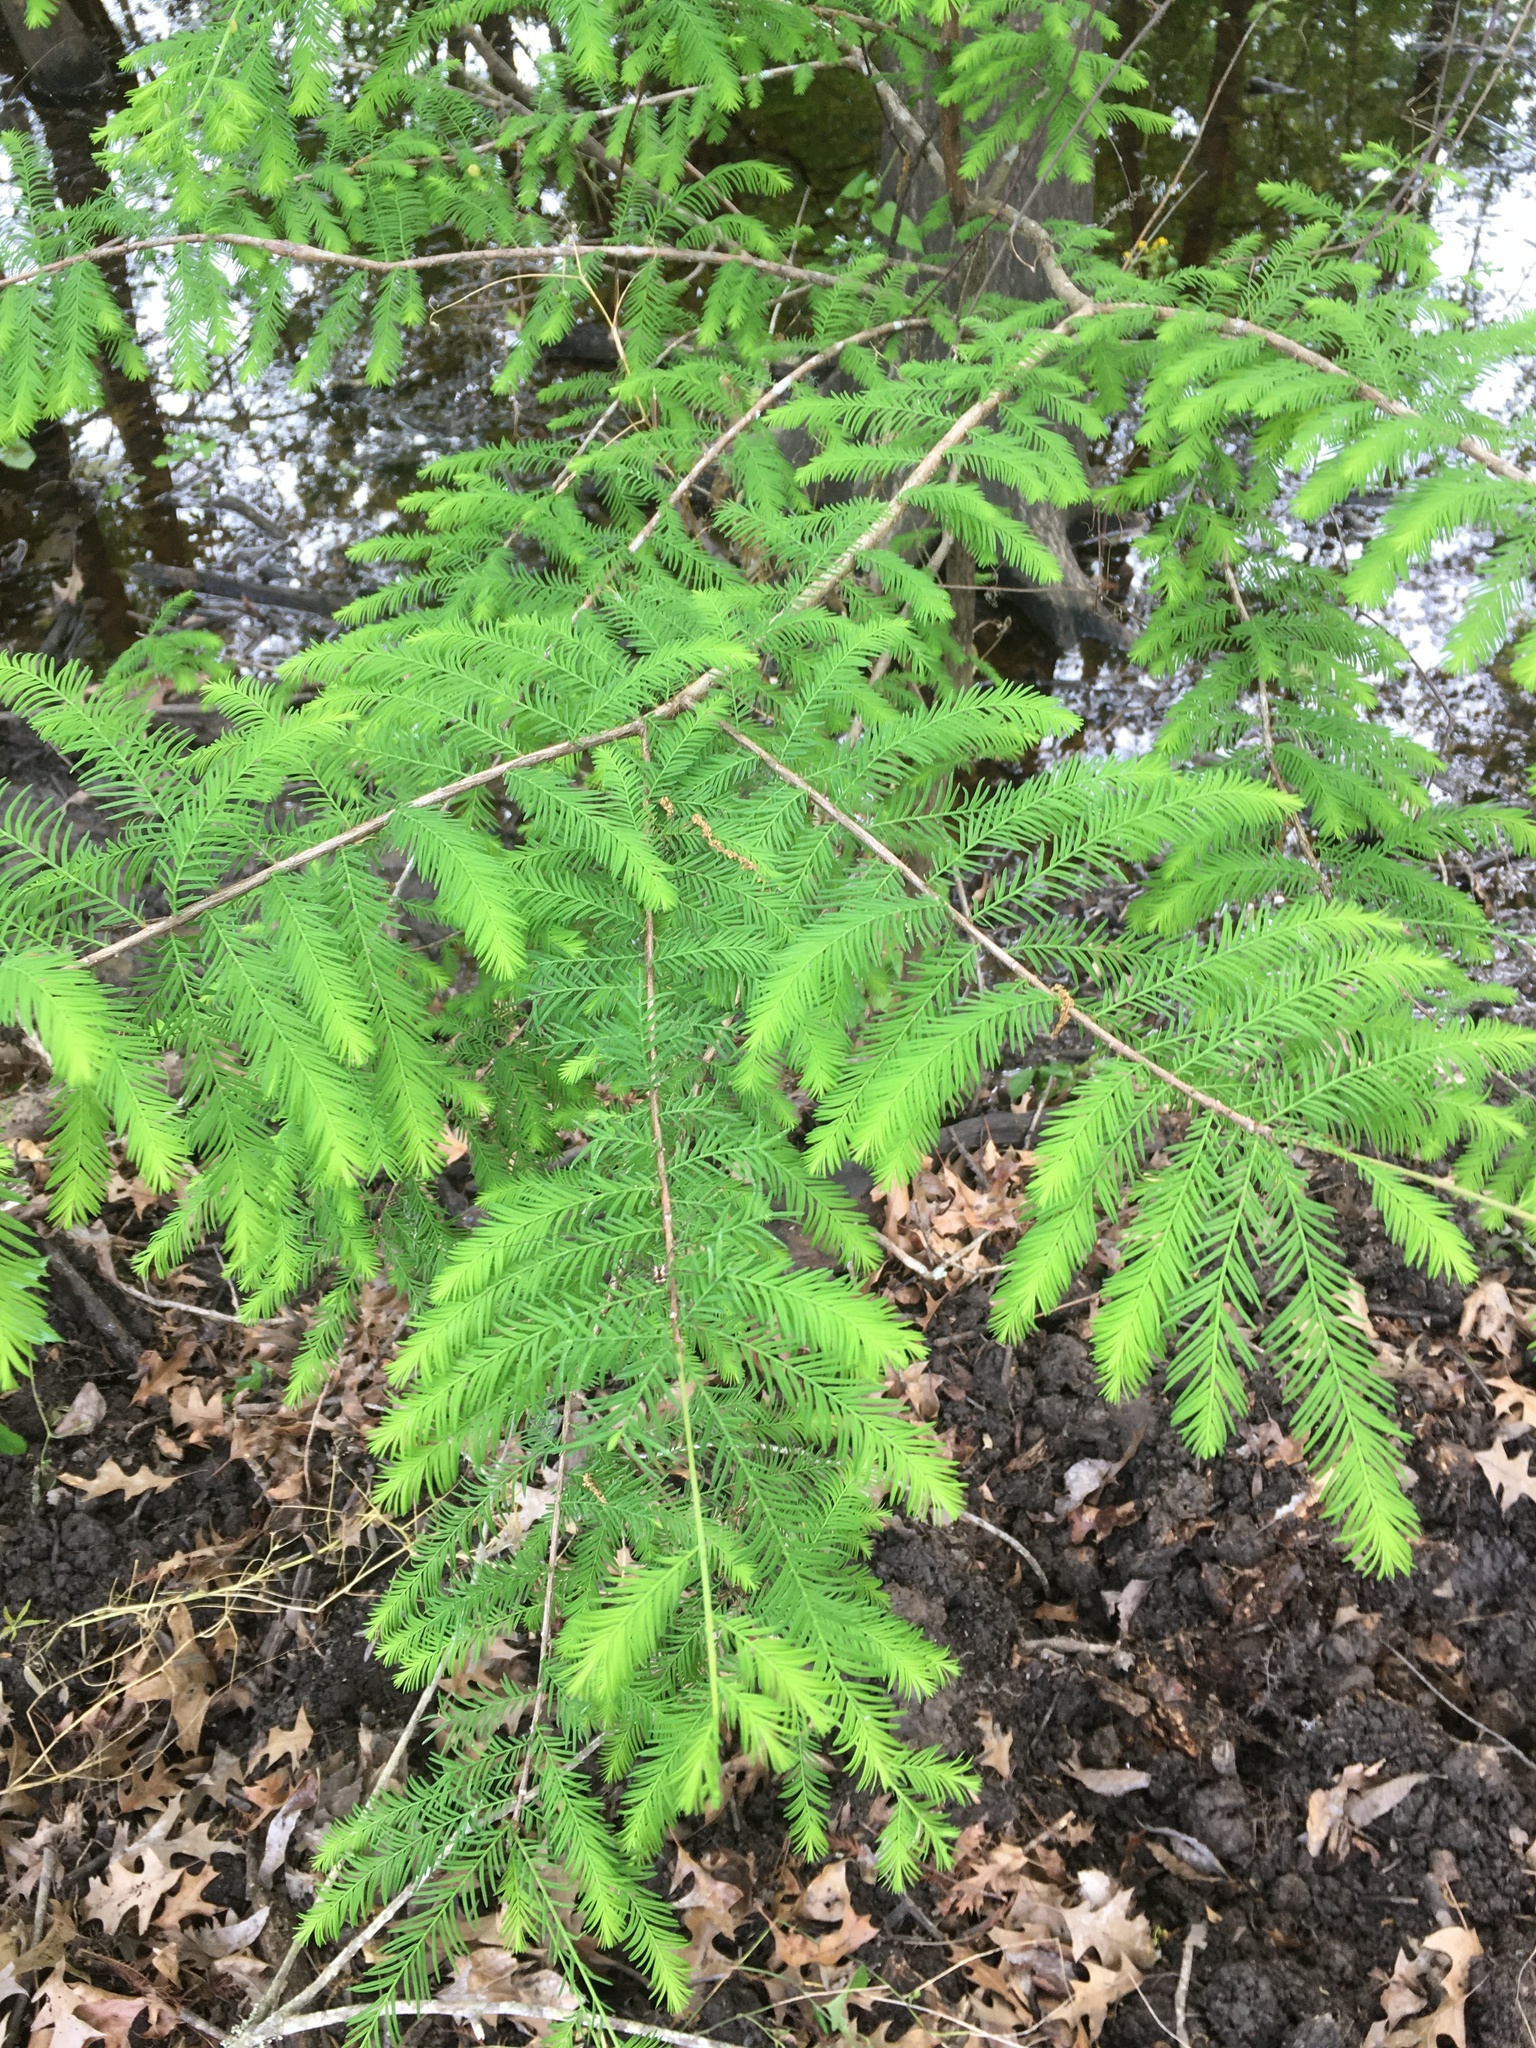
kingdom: Plantae
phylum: Tracheophyta
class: Pinopsida
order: Pinales
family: Cupressaceae
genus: Taxodium
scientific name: Taxodium distichum
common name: Bald cypress
